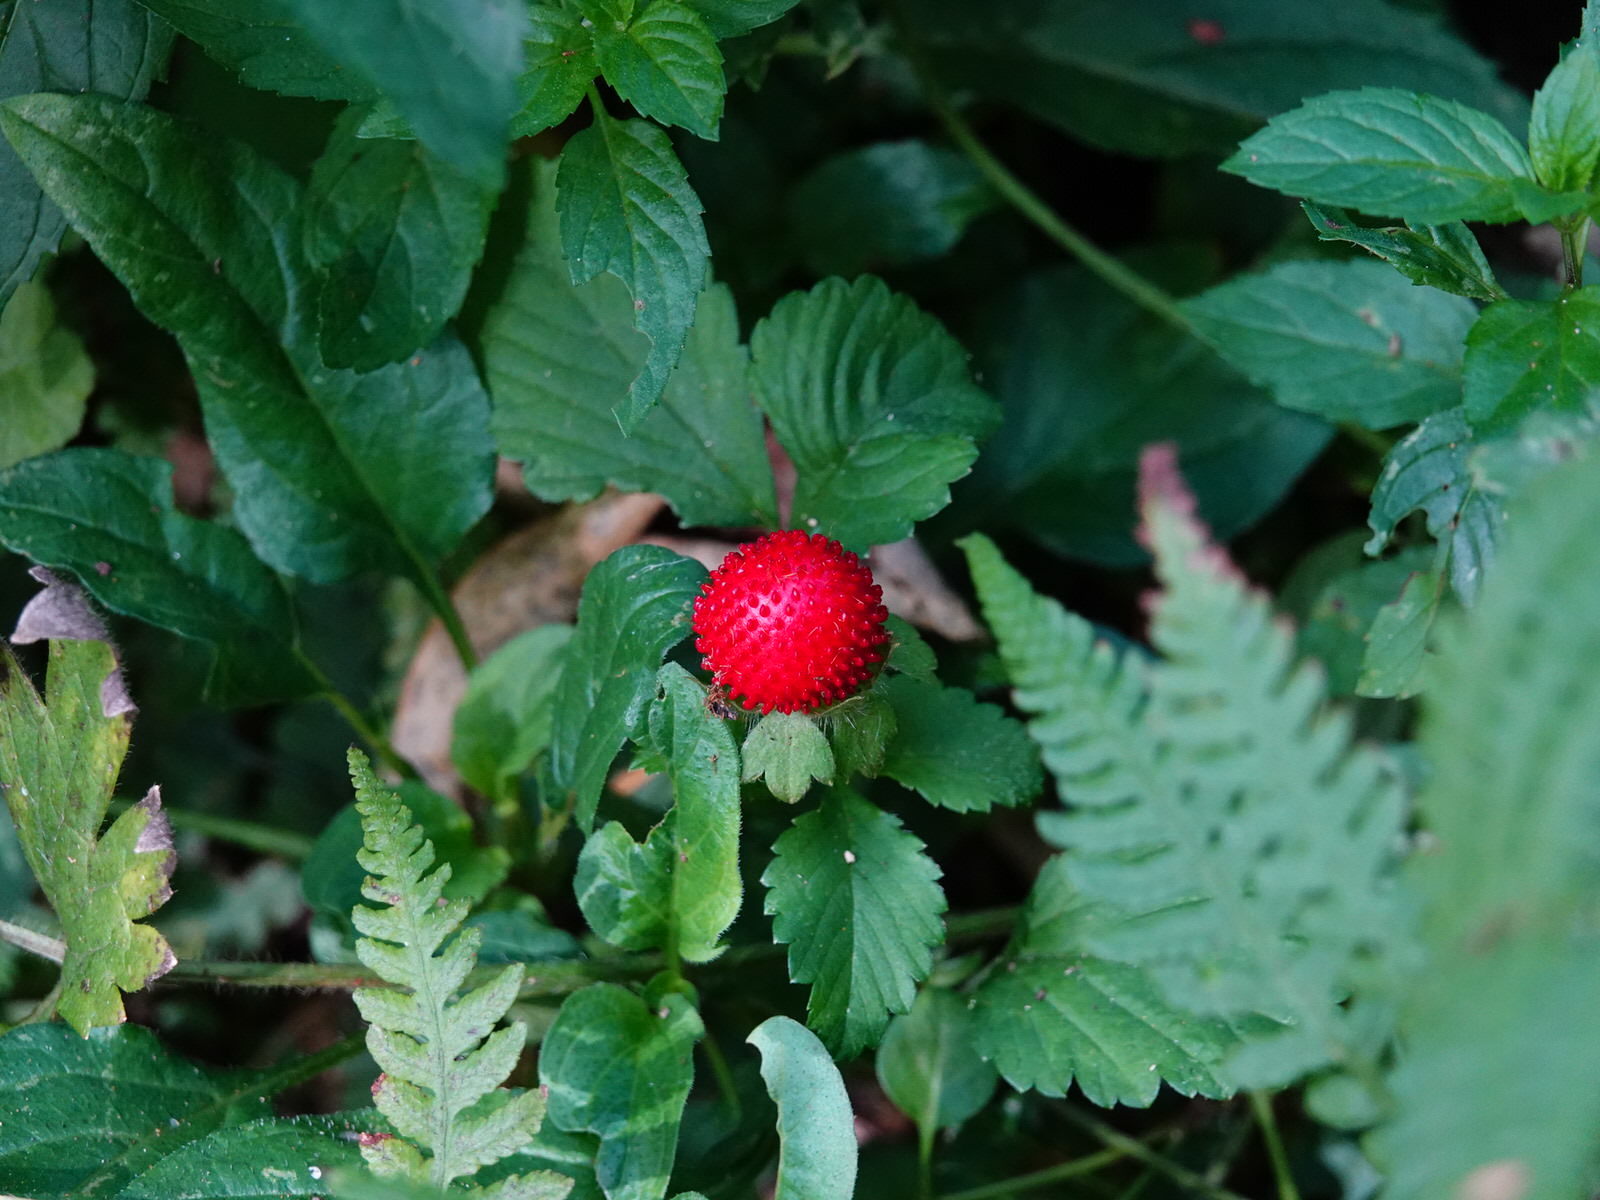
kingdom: Plantae
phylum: Tracheophyta
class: Magnoliopsida
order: Rosales
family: Rosaceae
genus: Potentilla
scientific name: Potentilla indica
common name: Yellow-flowered strawberry
